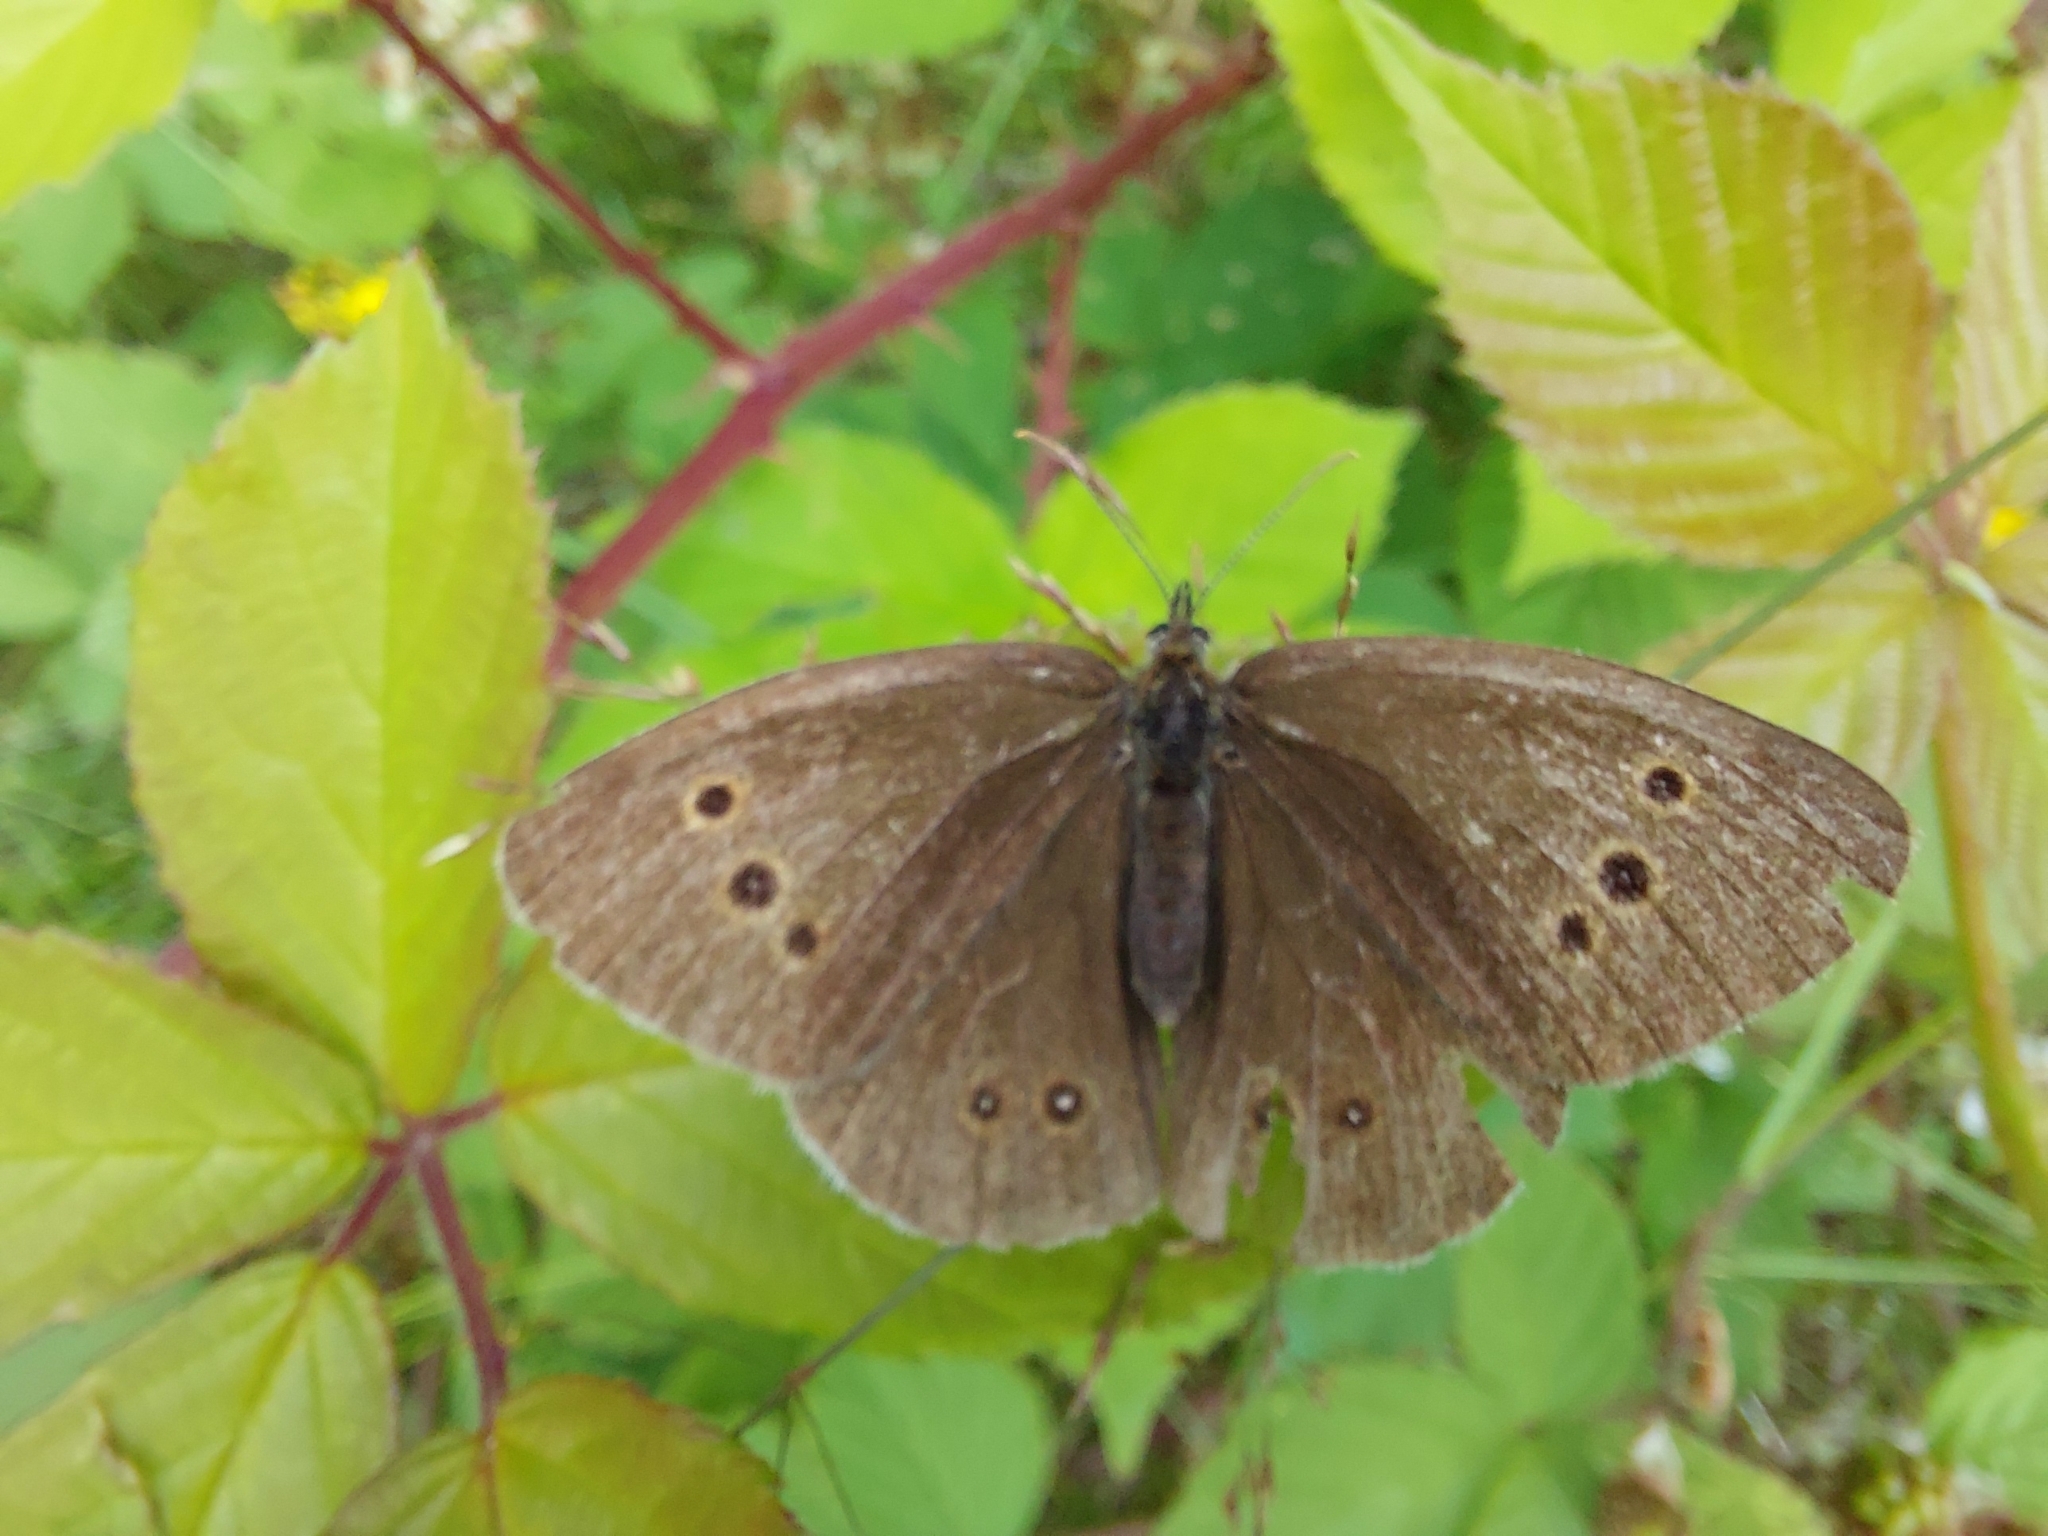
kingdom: Animalia
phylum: Arthropoda
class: Insecta
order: Lepidoptera
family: Nymphalidae
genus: Aphantopus
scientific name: Aphantopus hyperantus
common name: Ringlet
